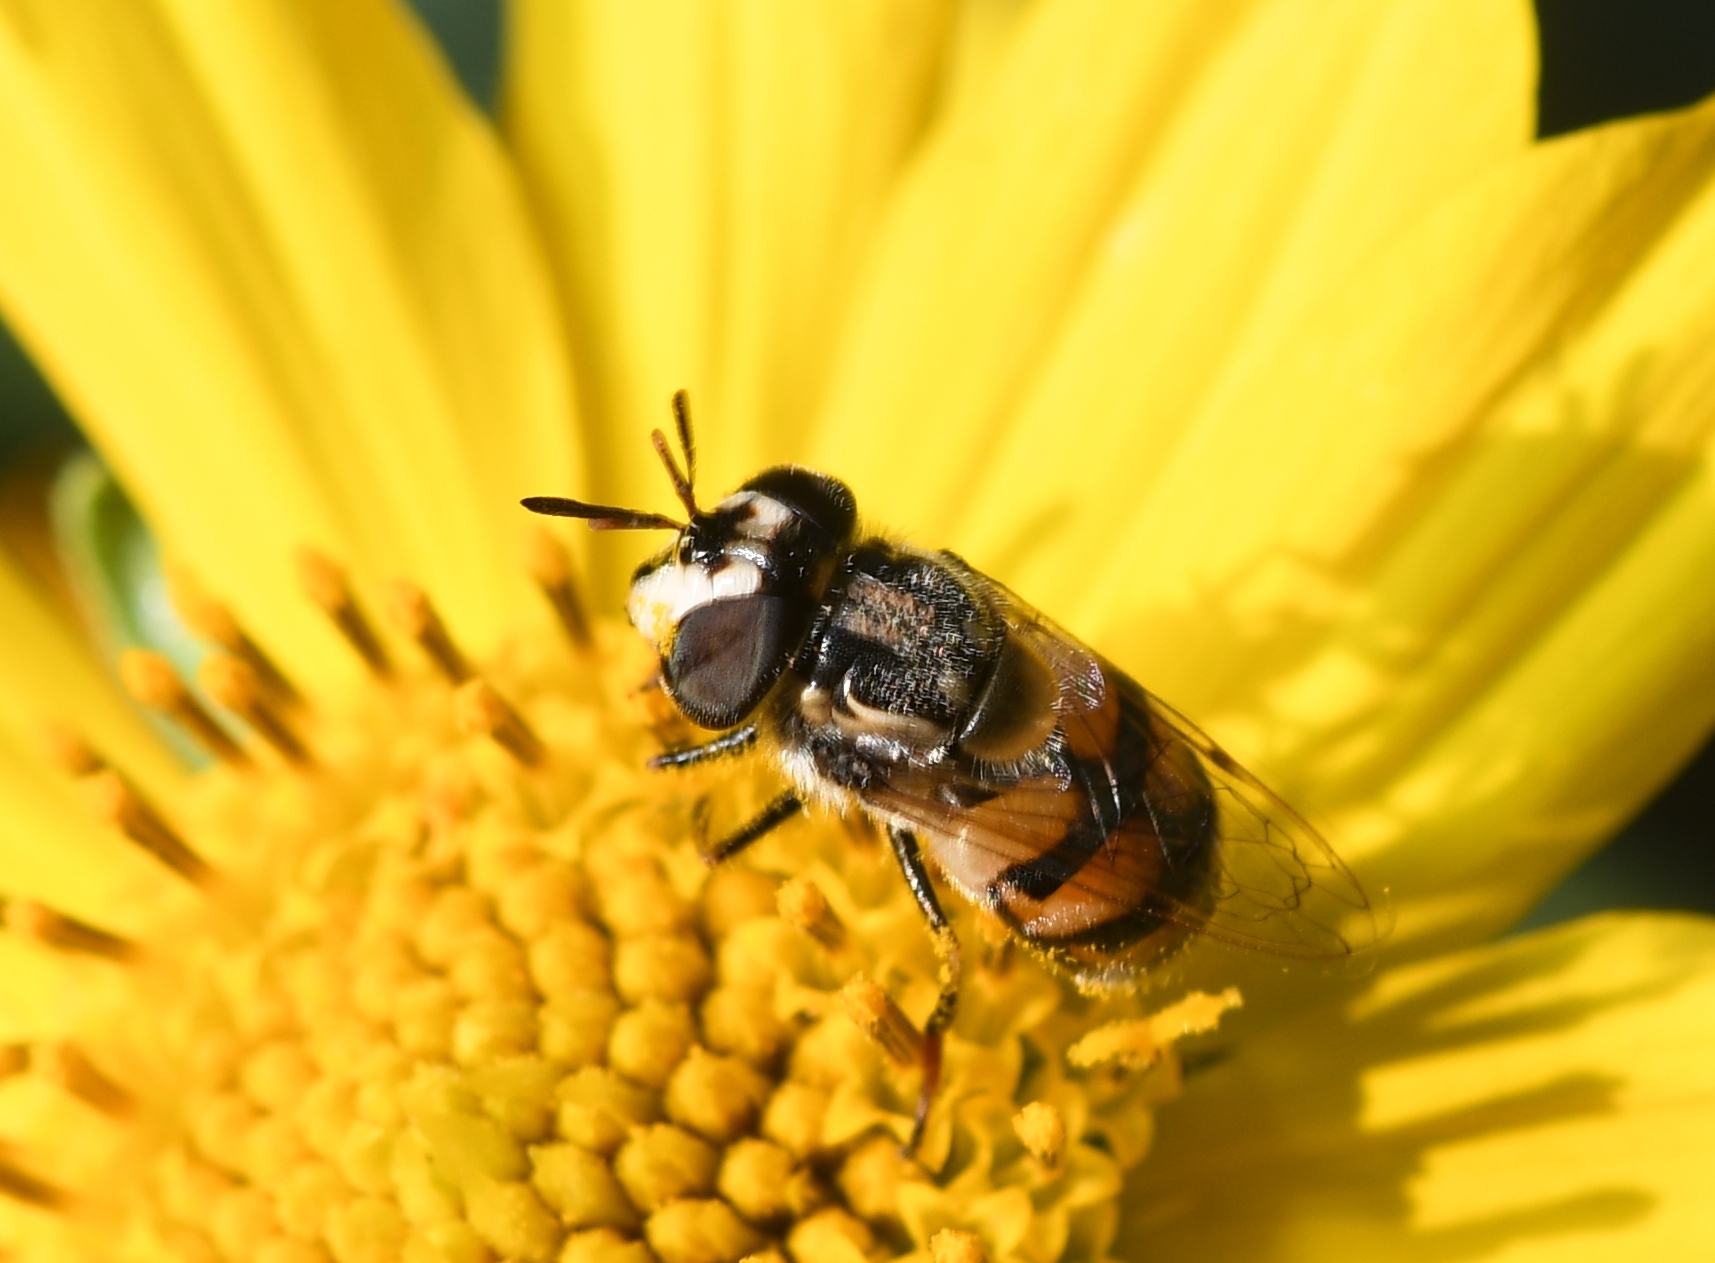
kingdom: Animalia
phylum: Arthropoda
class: Insecta
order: Diptera
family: Syrphidae
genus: Copestylum
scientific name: Copestylum marginatum
